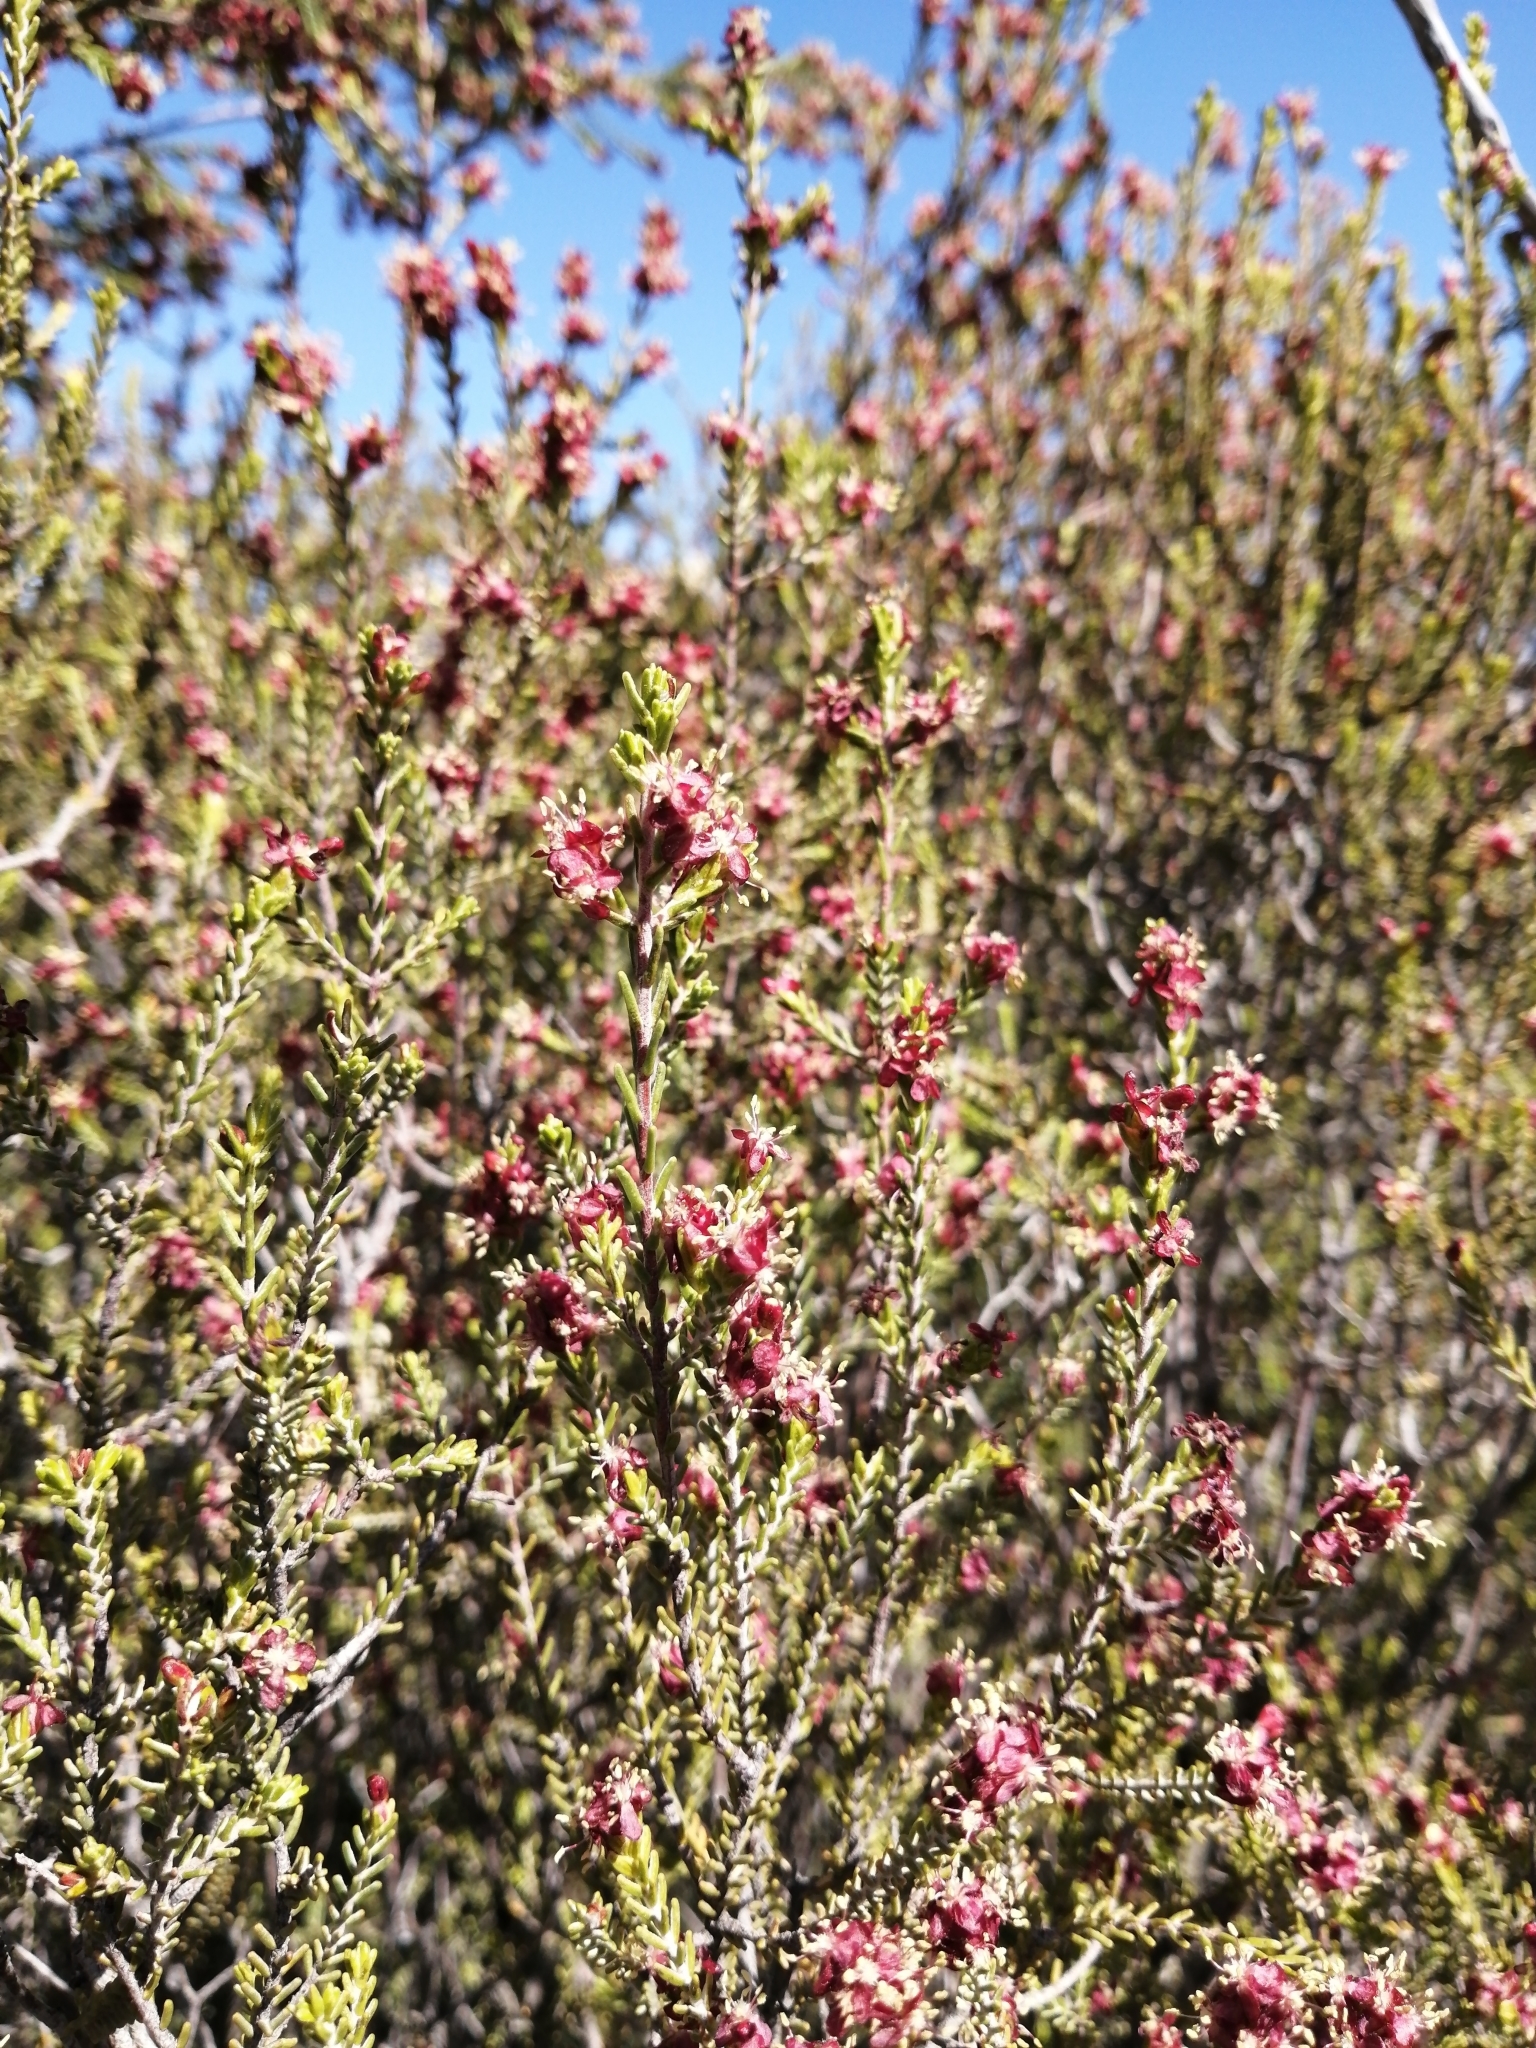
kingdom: Plantae
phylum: Tracheophyta
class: Magnoliopsida
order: Malvales
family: Thymelaeaceae
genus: Passerina
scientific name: Passerina obtusifolia
